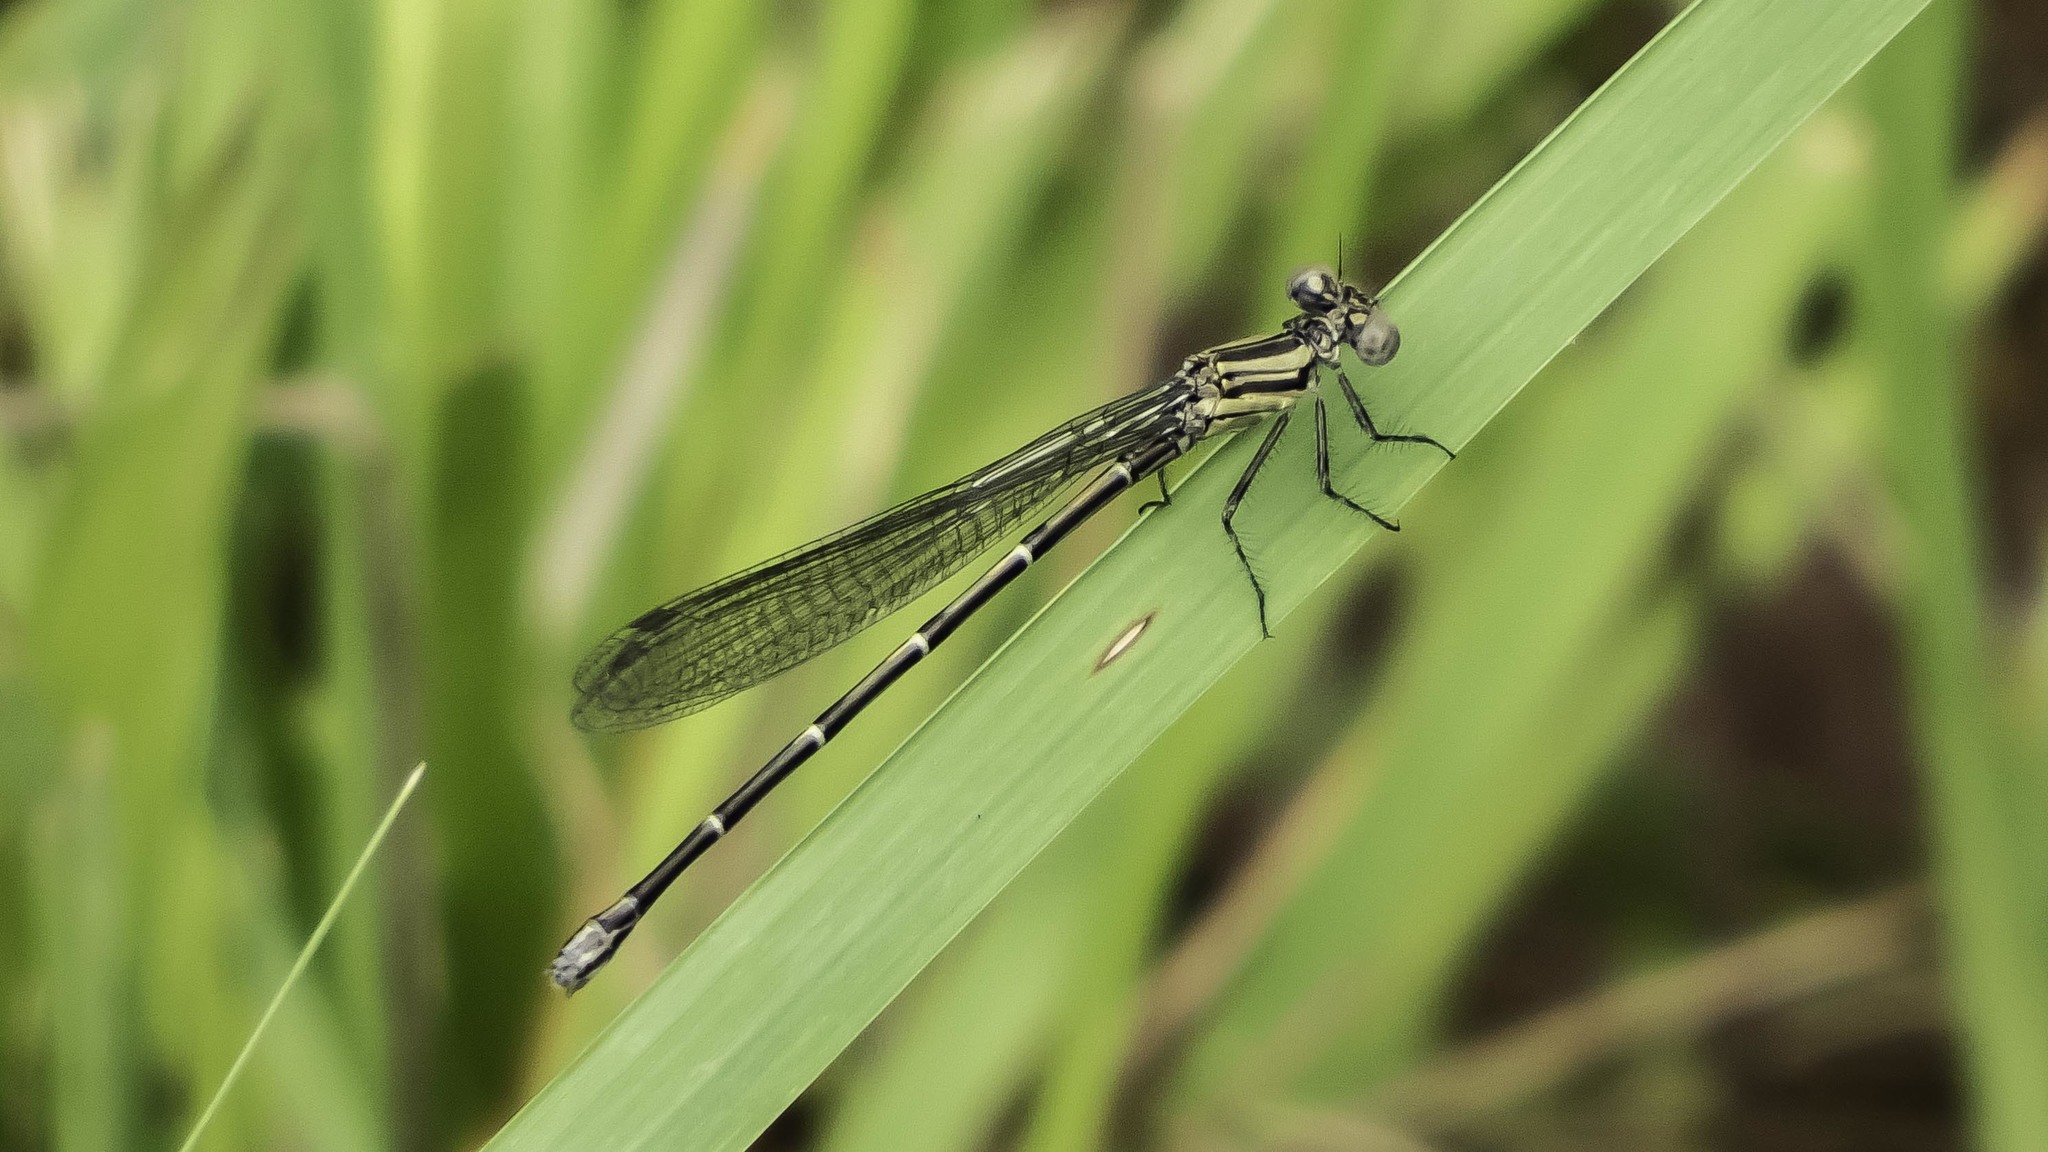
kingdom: Animalia
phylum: Arthropoda
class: Insecta
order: Odonata
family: Coenagrionidae
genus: Argia
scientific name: Argia translata
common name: Dusky dancer
